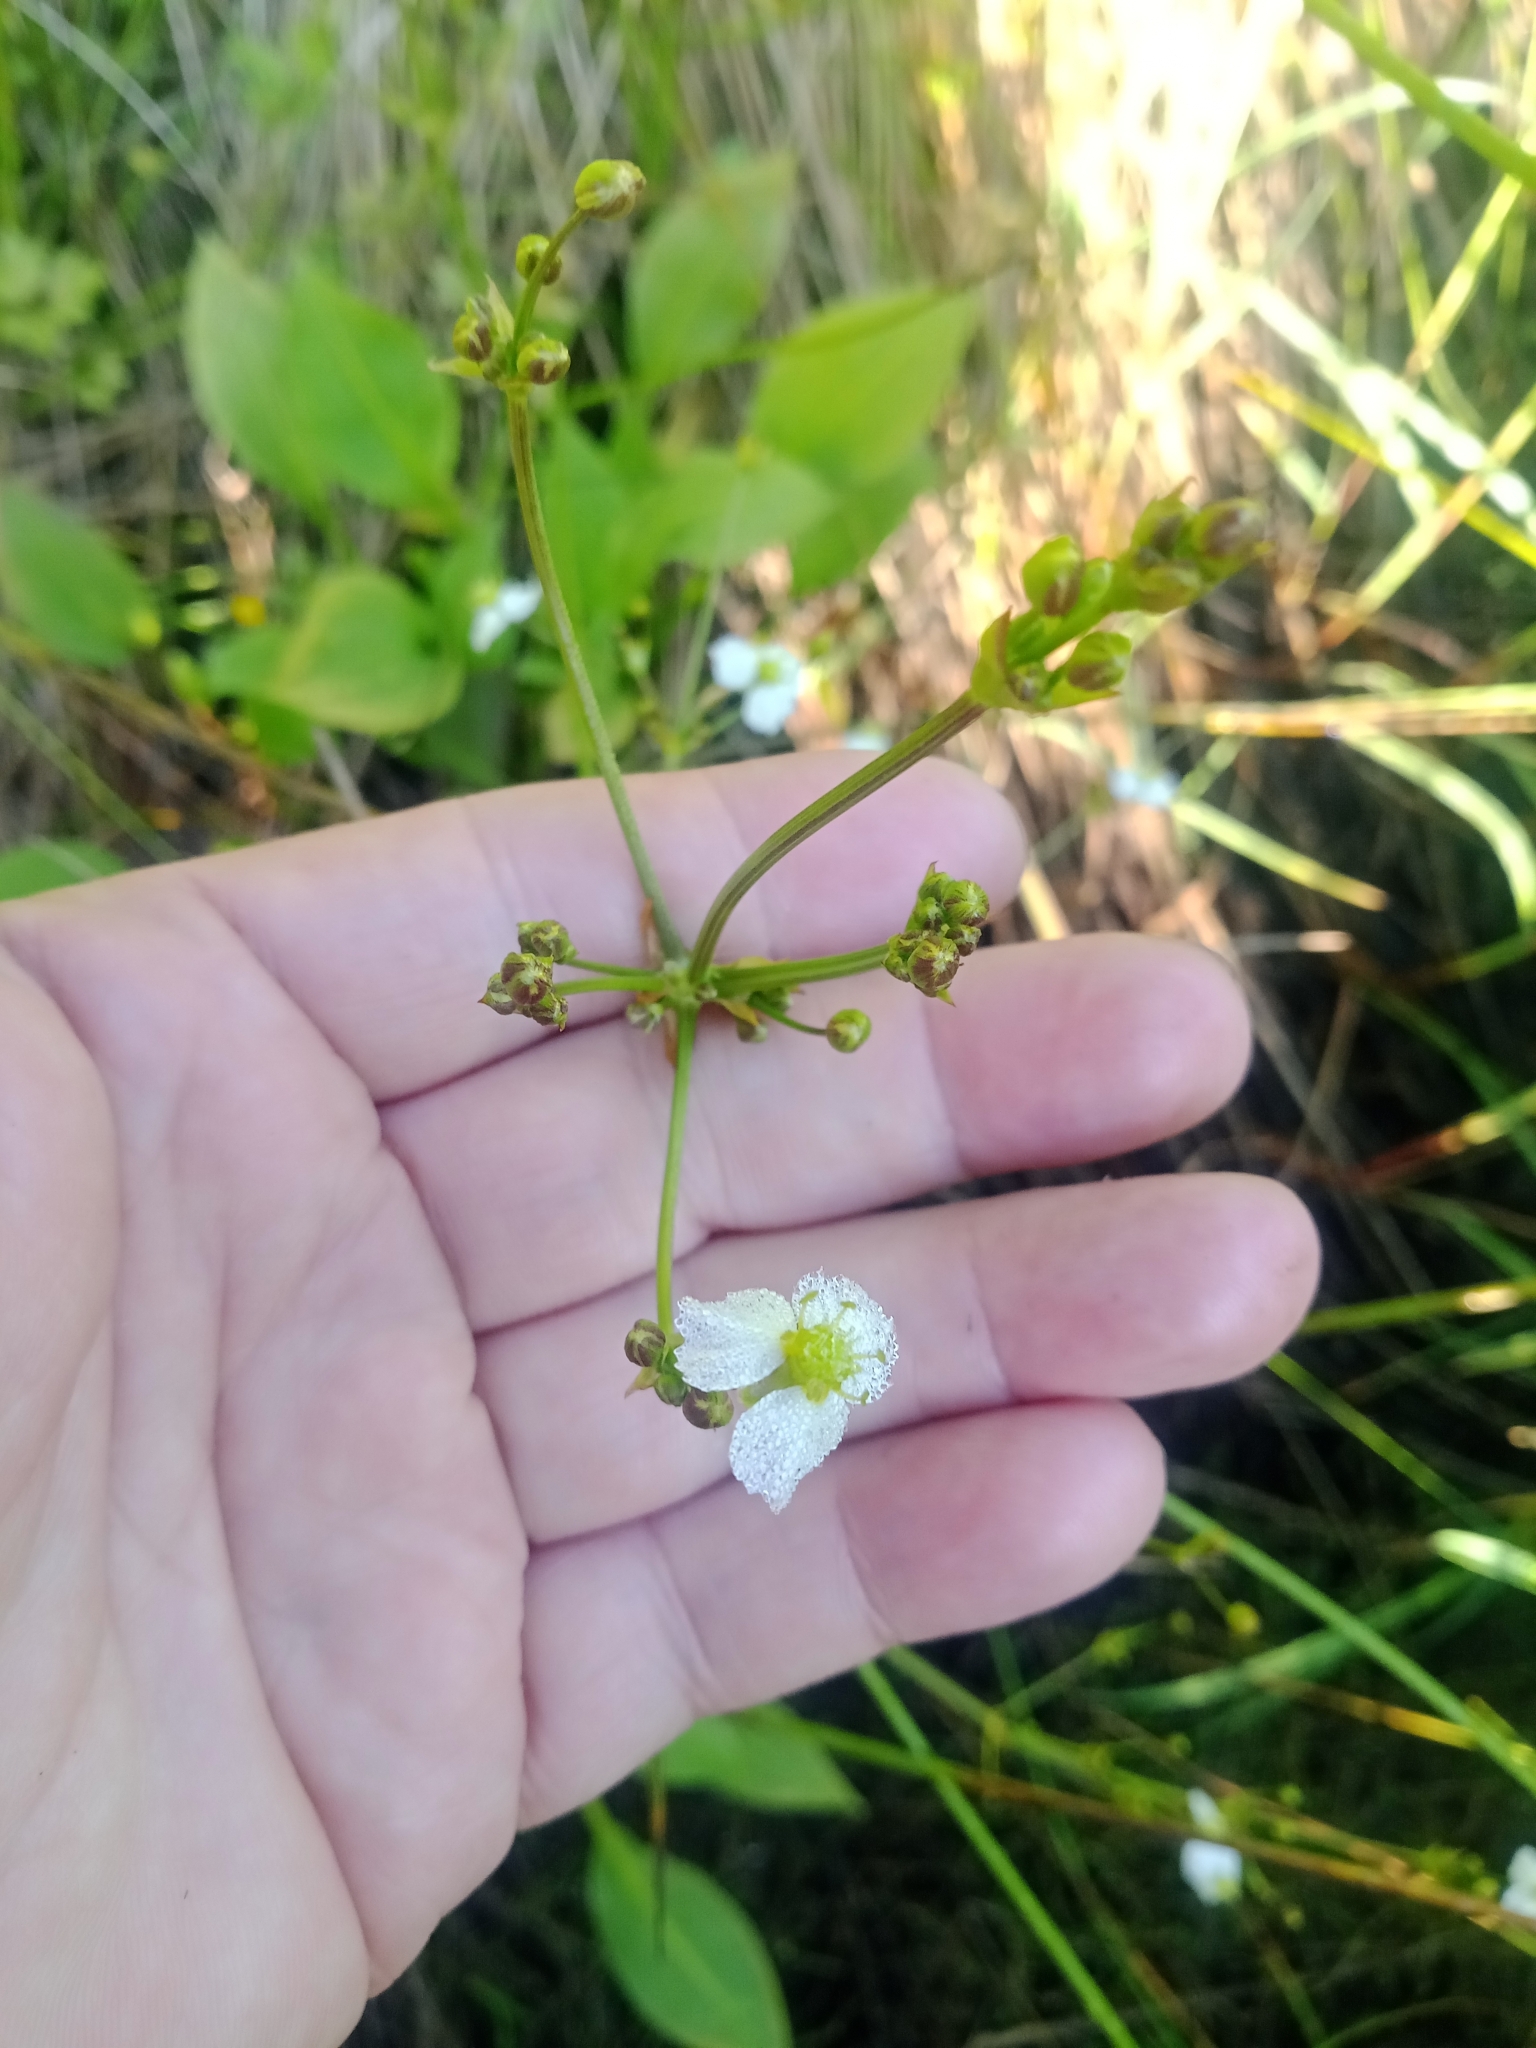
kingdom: Plantae
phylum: Tracheophyta
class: Liliopsida
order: Alismatales
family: Alismataceae
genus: Alisma
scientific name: Alisma plantago-aquatica
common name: Water-plantain
